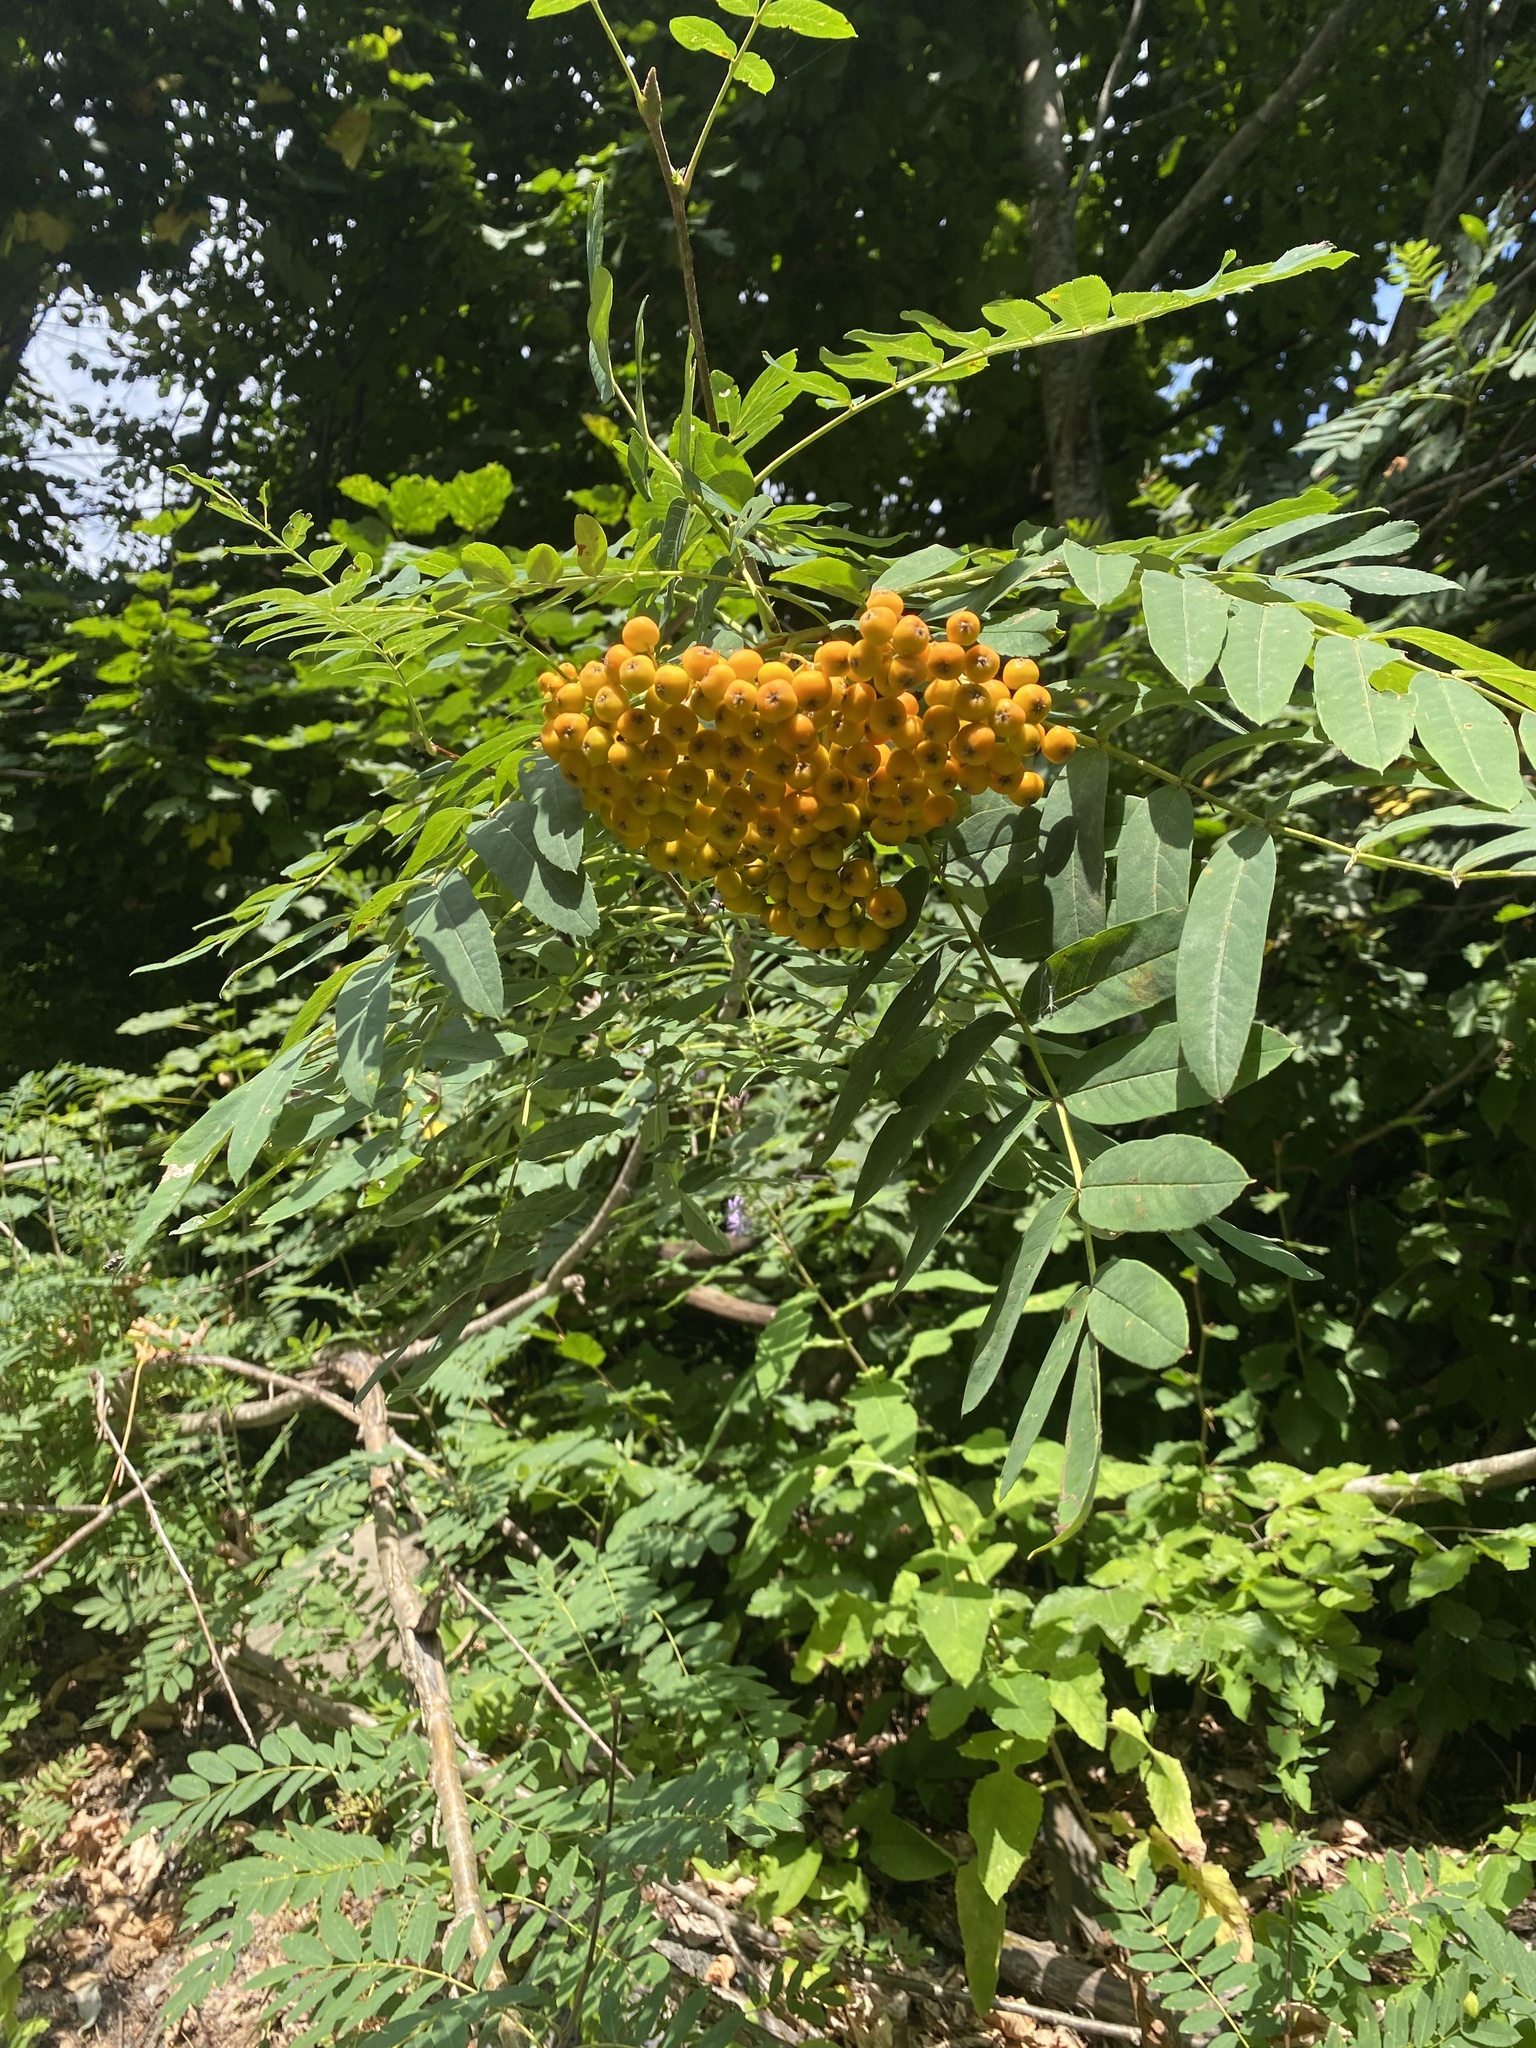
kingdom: Plantae
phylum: Tracheophyta
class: Magnoliopsida
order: Rosales
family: Rosaceae
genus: Sorbus
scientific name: Sorbus aucuparia
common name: Rowan
